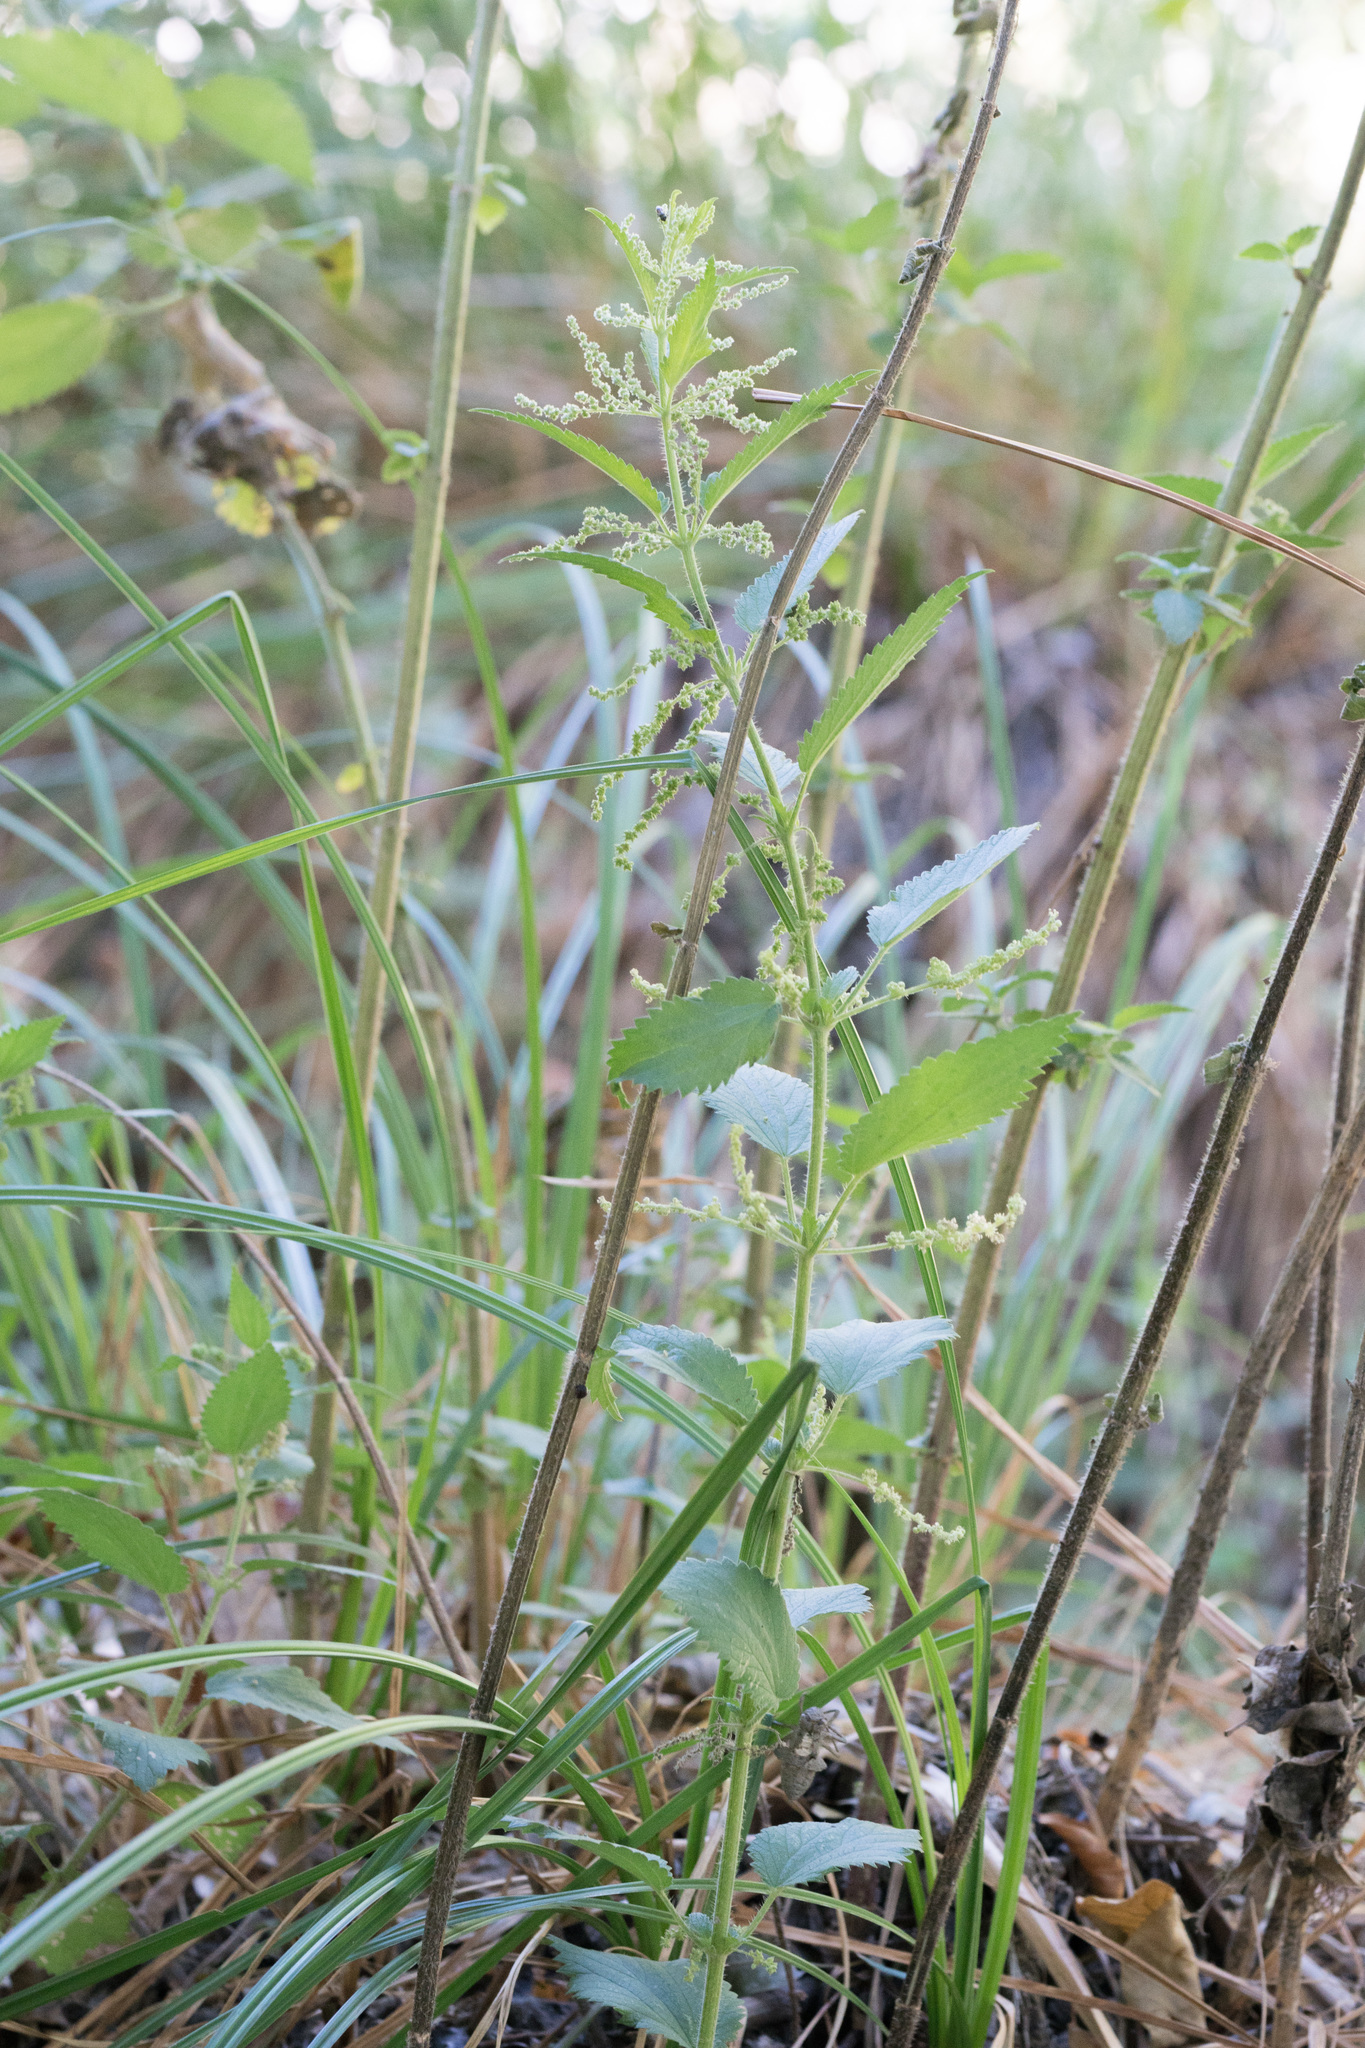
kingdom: Plantae
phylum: Tracheophyta
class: Magnoliopsida
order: Rosales
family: Urticaceae
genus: Urtica
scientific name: Urtica dioica
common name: Common nettle
